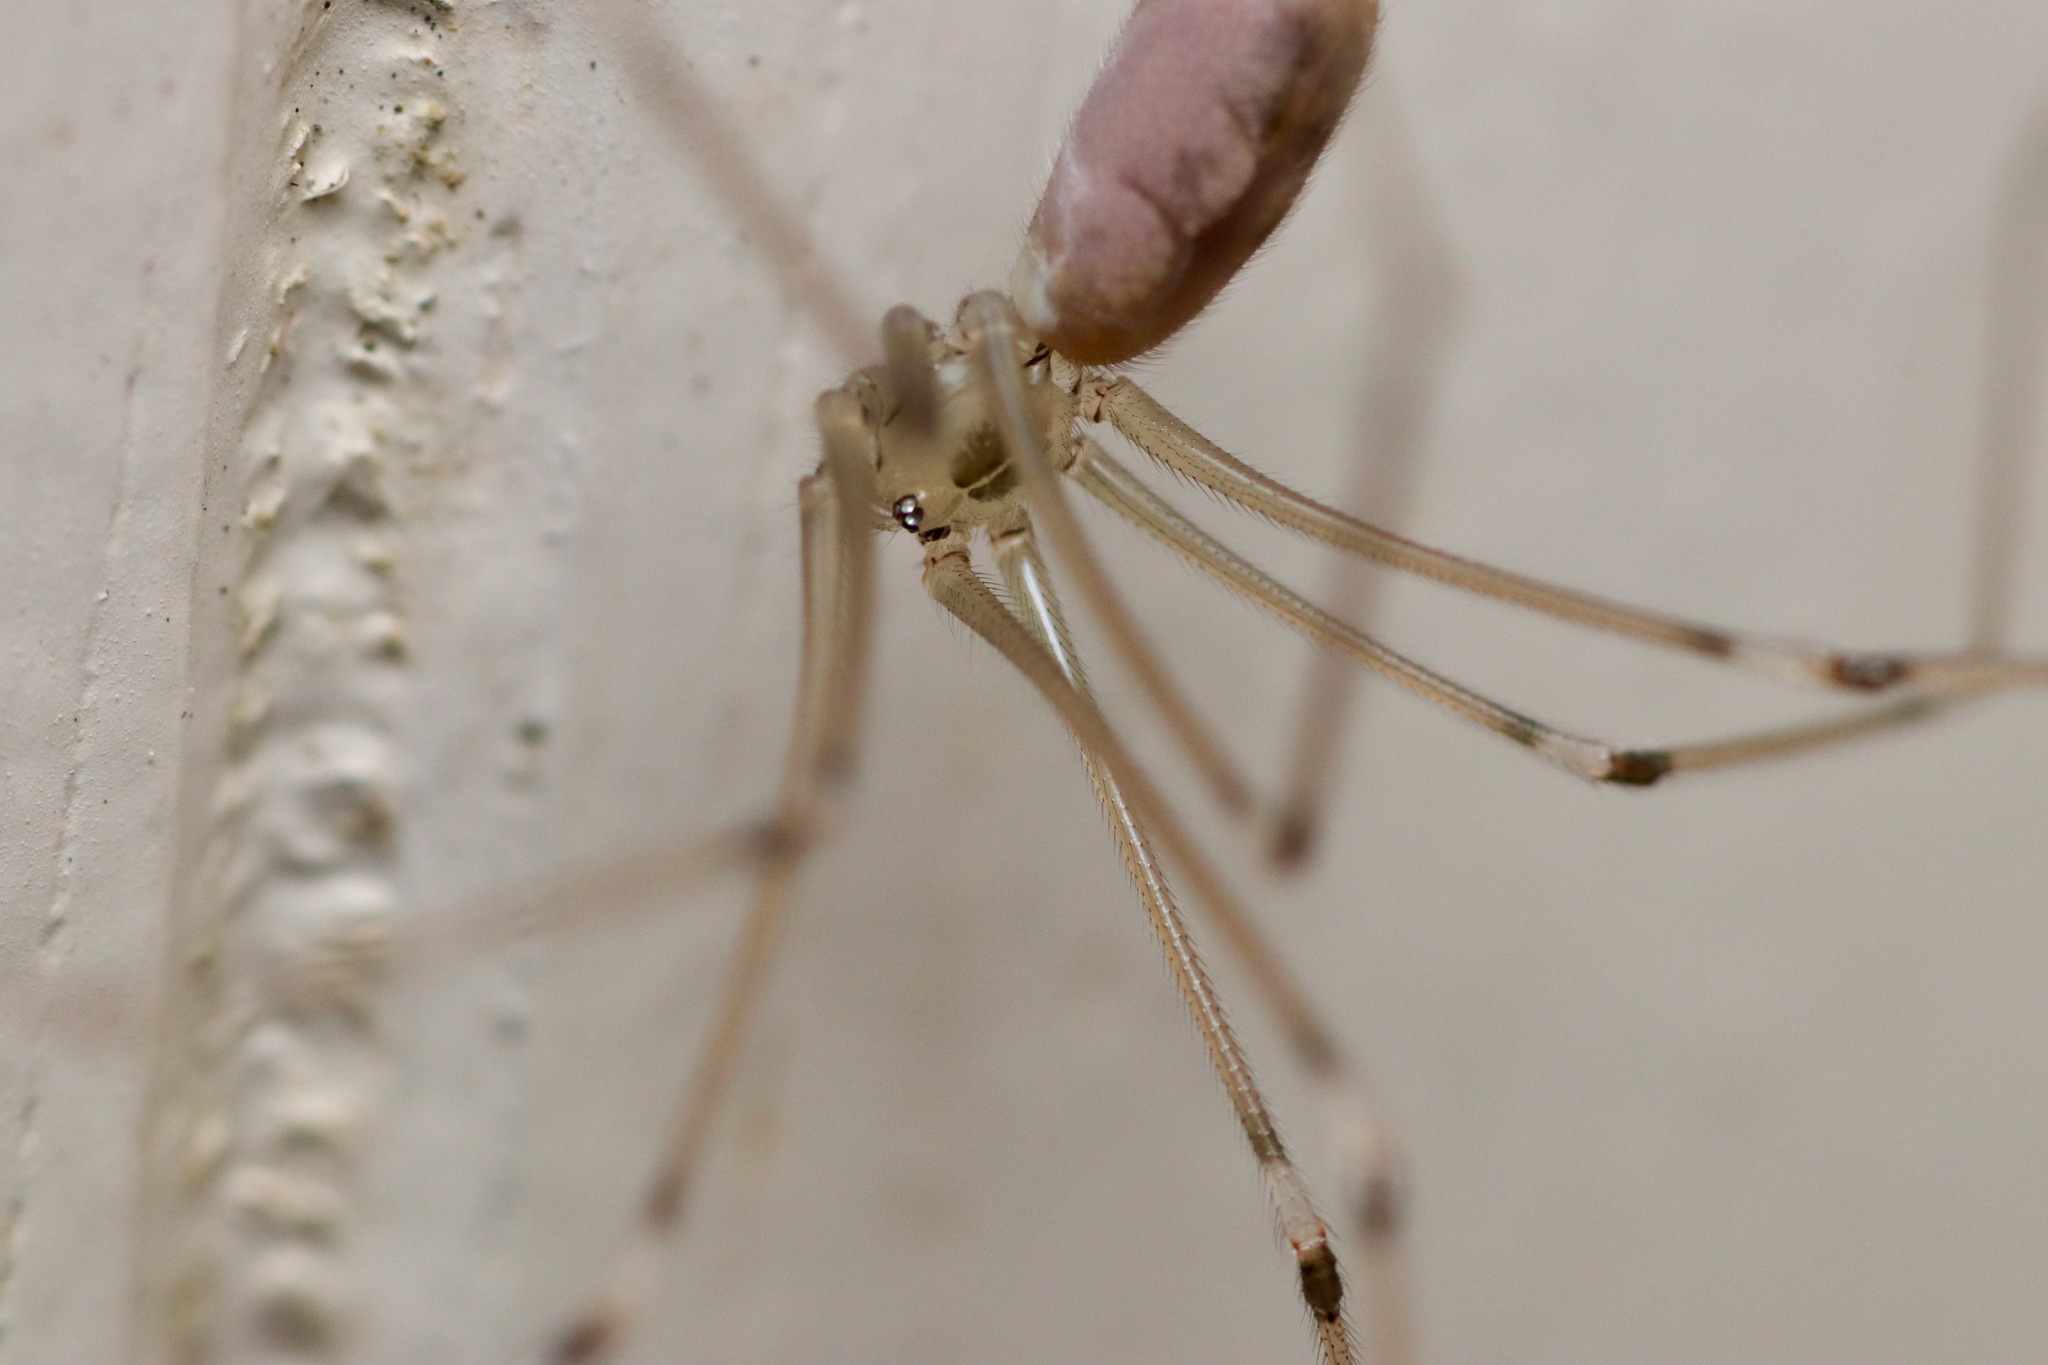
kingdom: Animalia
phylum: Arthropoda
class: Arachnida
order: Araneae
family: Pholcidae
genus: Pholcus
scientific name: Pholcus phalangioides
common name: Longbodied cellar spider
